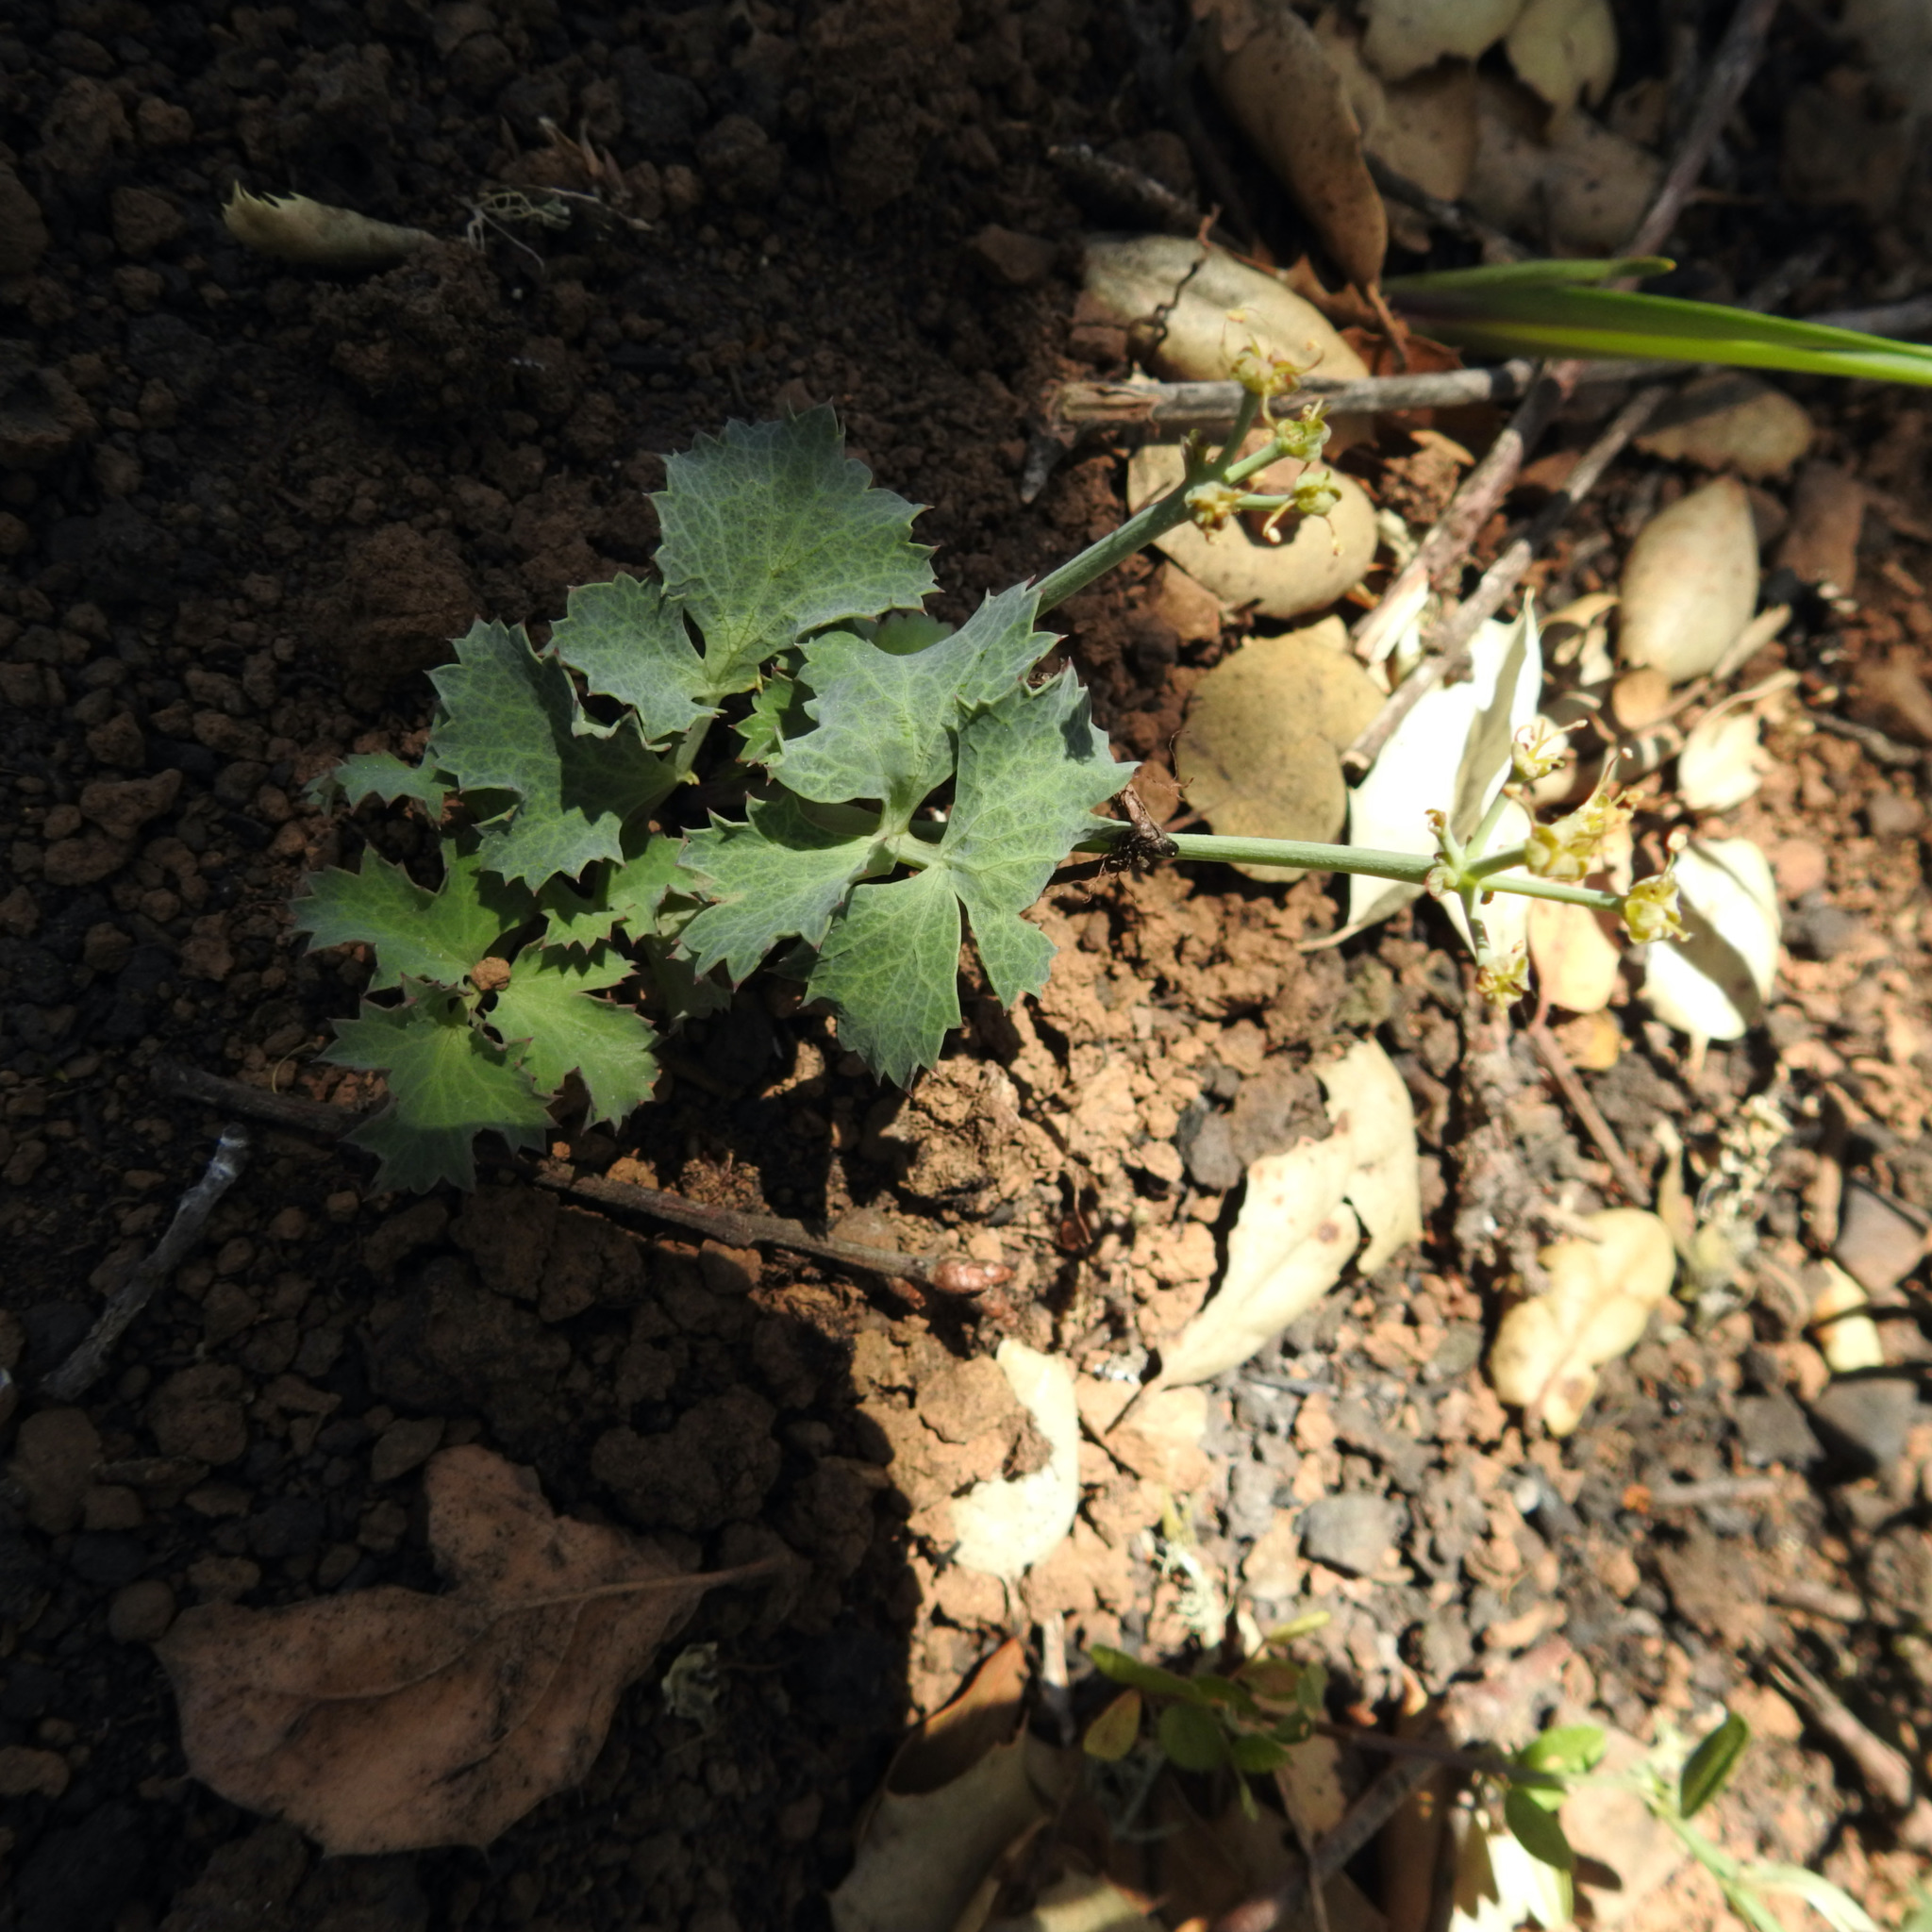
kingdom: Plantae
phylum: Tracheophyta
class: Magnoliopsida
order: Apiales
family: Apiaceae
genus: Lomatium
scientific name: Lomatium repostum
